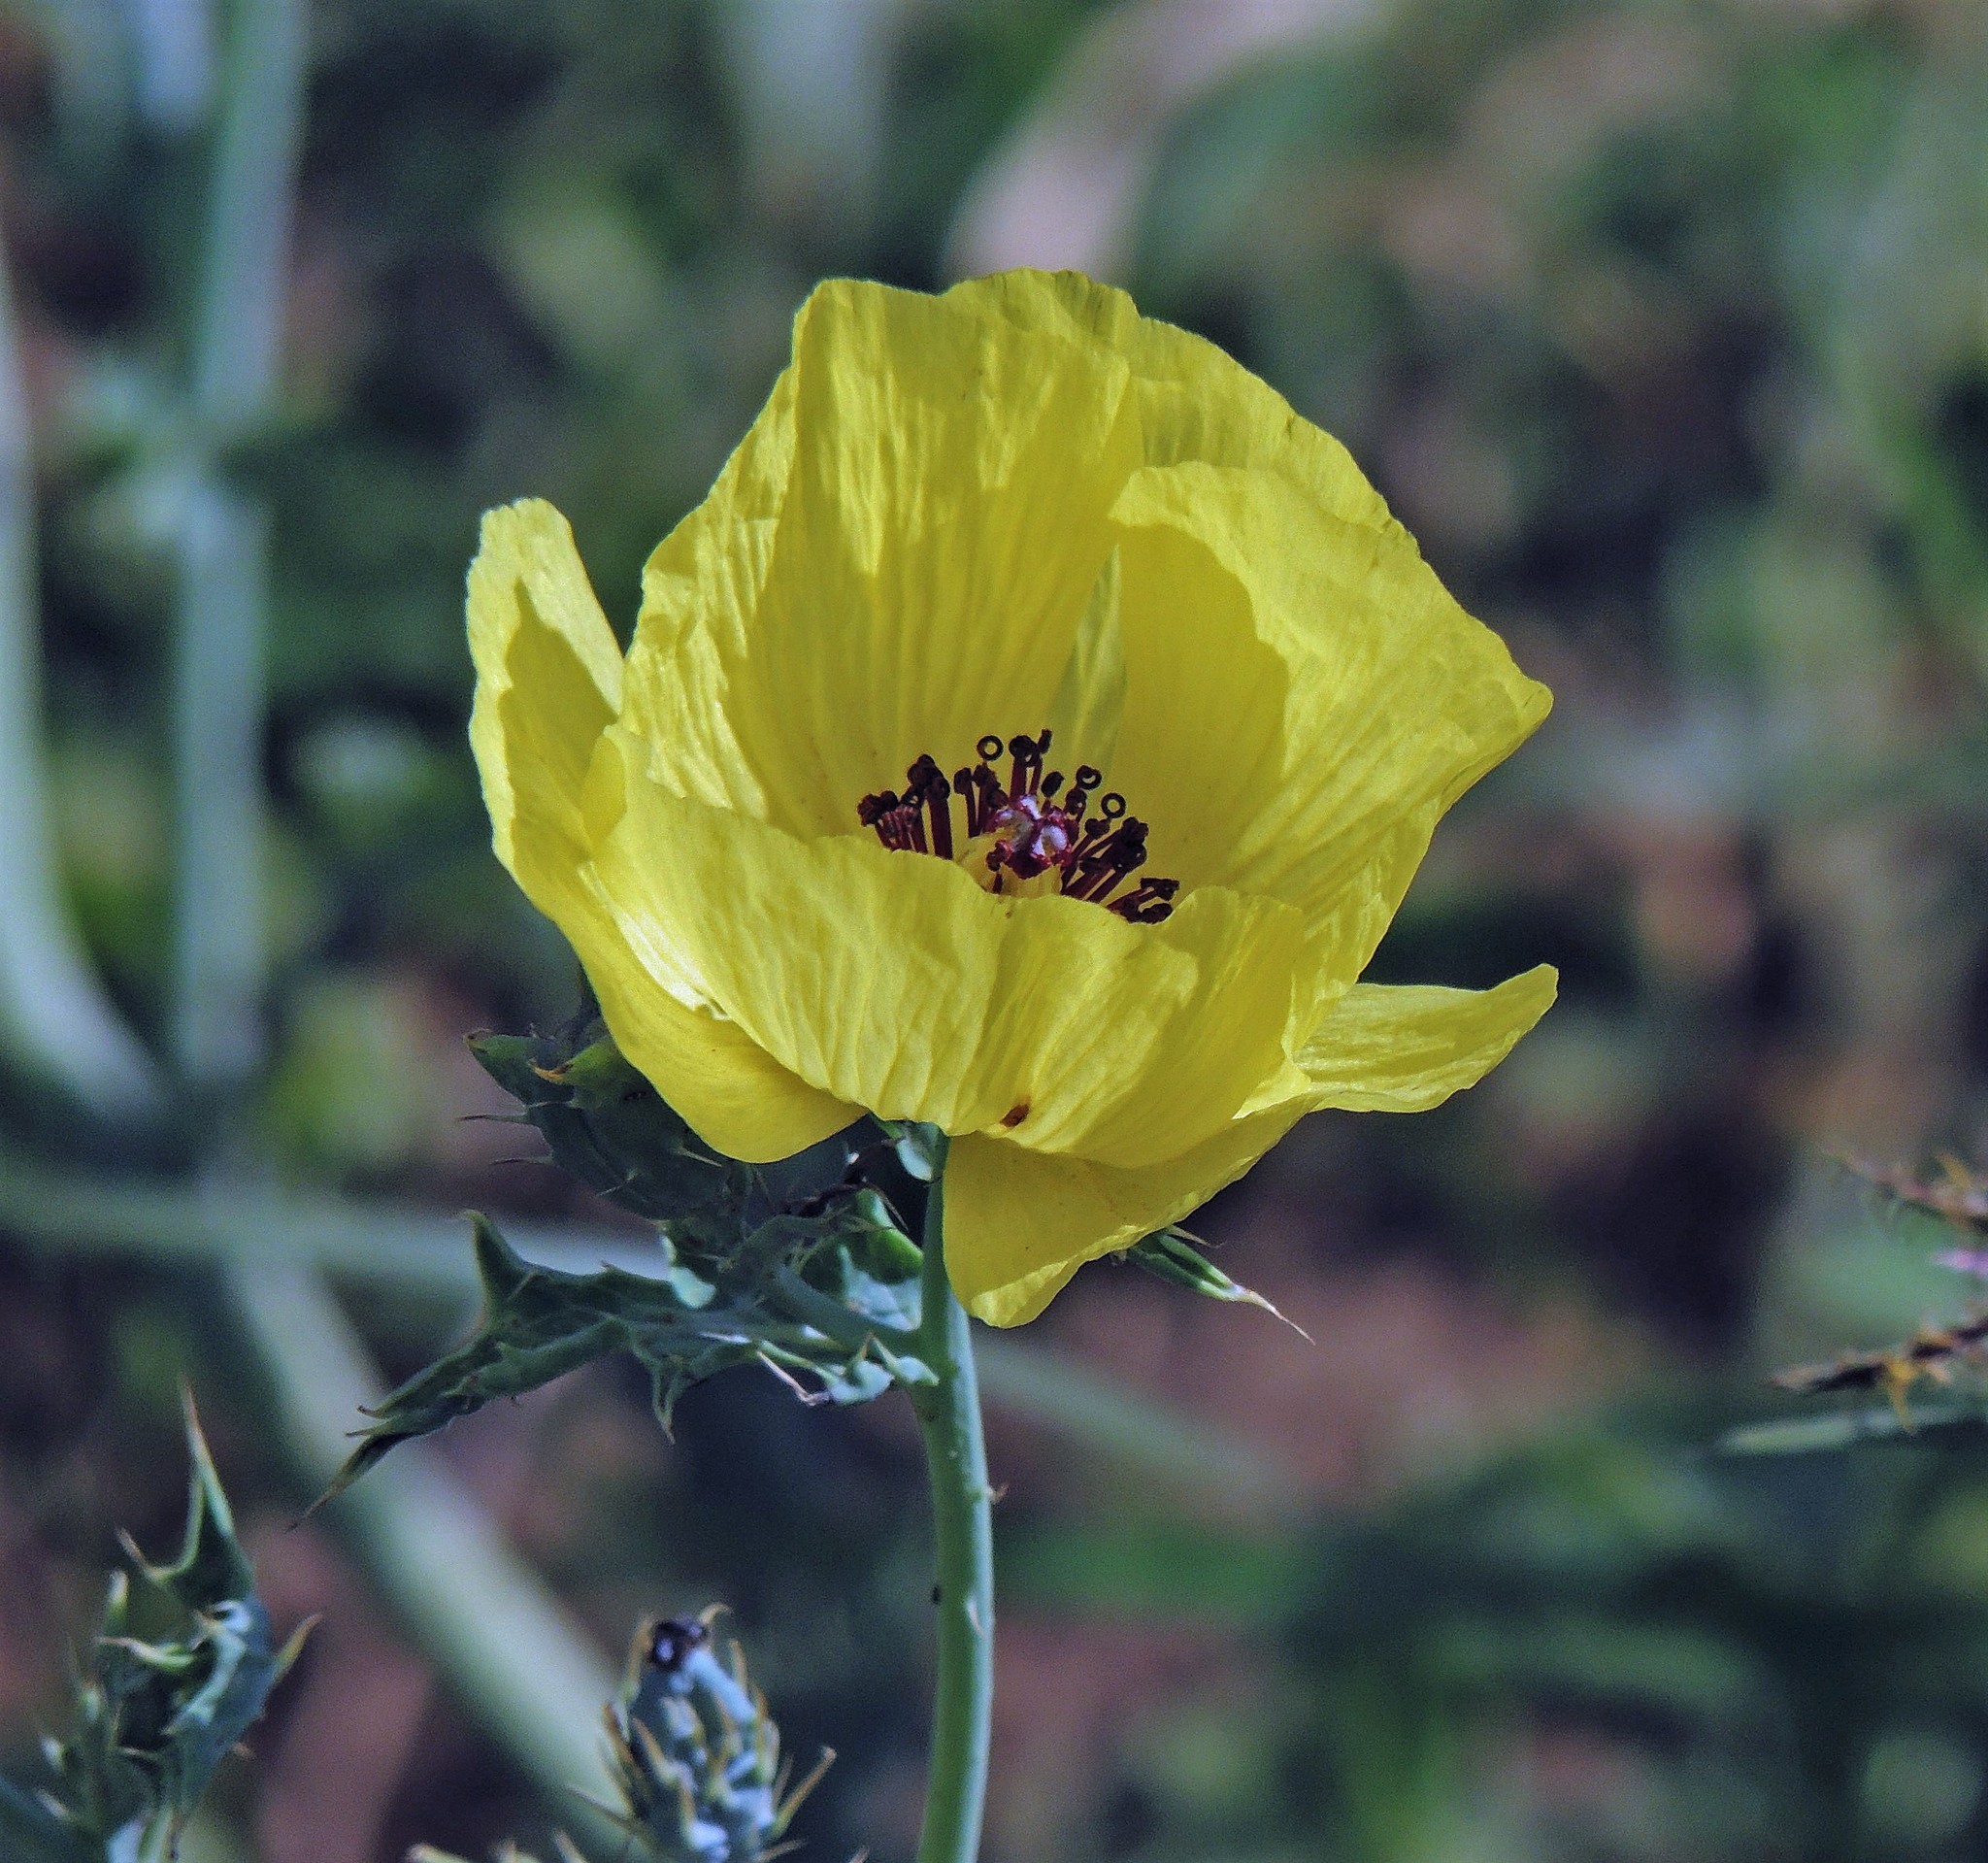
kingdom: Plantae
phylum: Tracheophyta
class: Magnoliopsida
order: Ranunculales
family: Papaveraceae
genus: Argemone
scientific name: Argemone subfusiformis
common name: American-poppy
